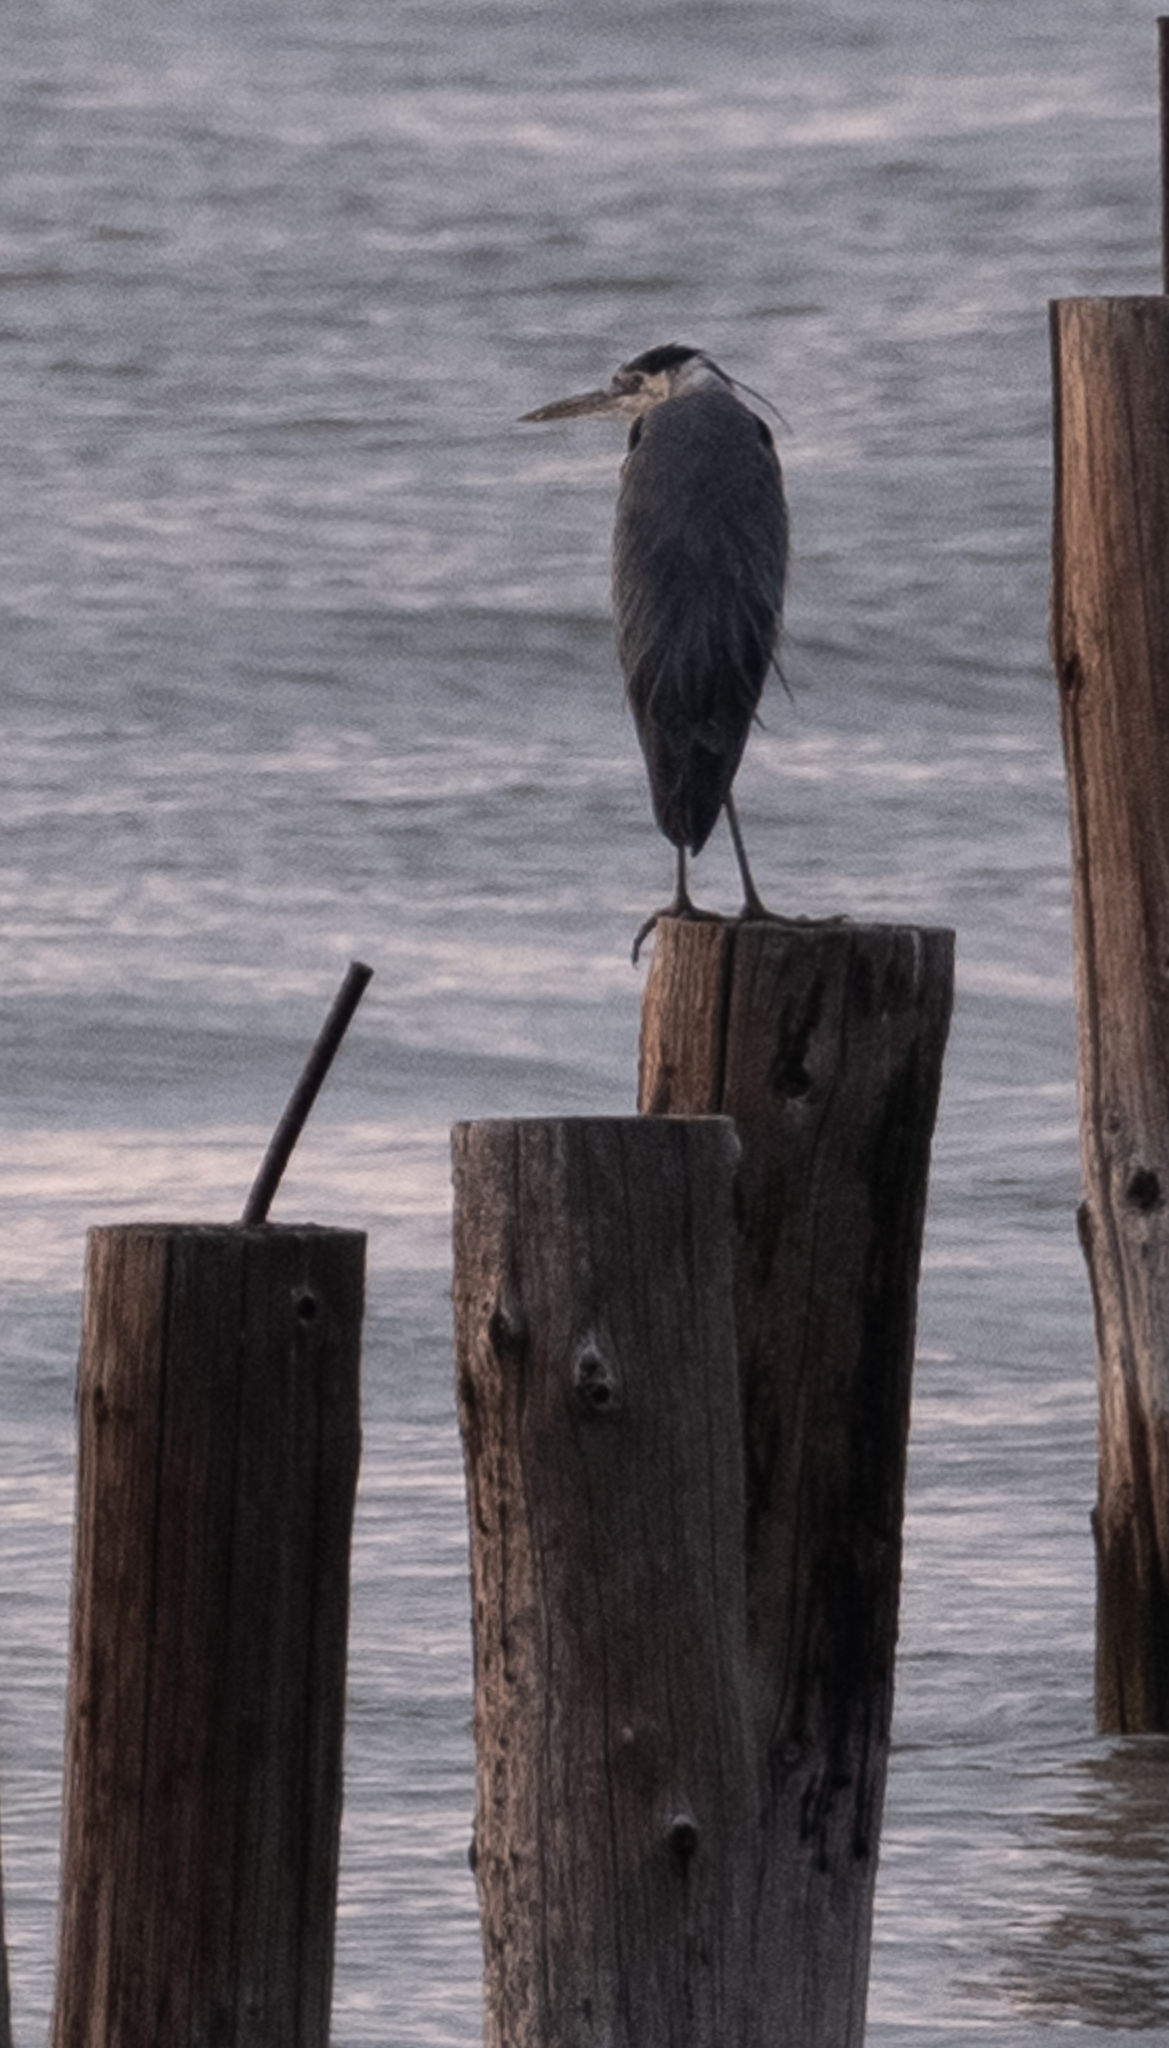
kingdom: Animalia
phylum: Chordata
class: Aves
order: Pelecaniformes
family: Ardeidae
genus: Ardea
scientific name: Ardea herodias
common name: Great blue heron
